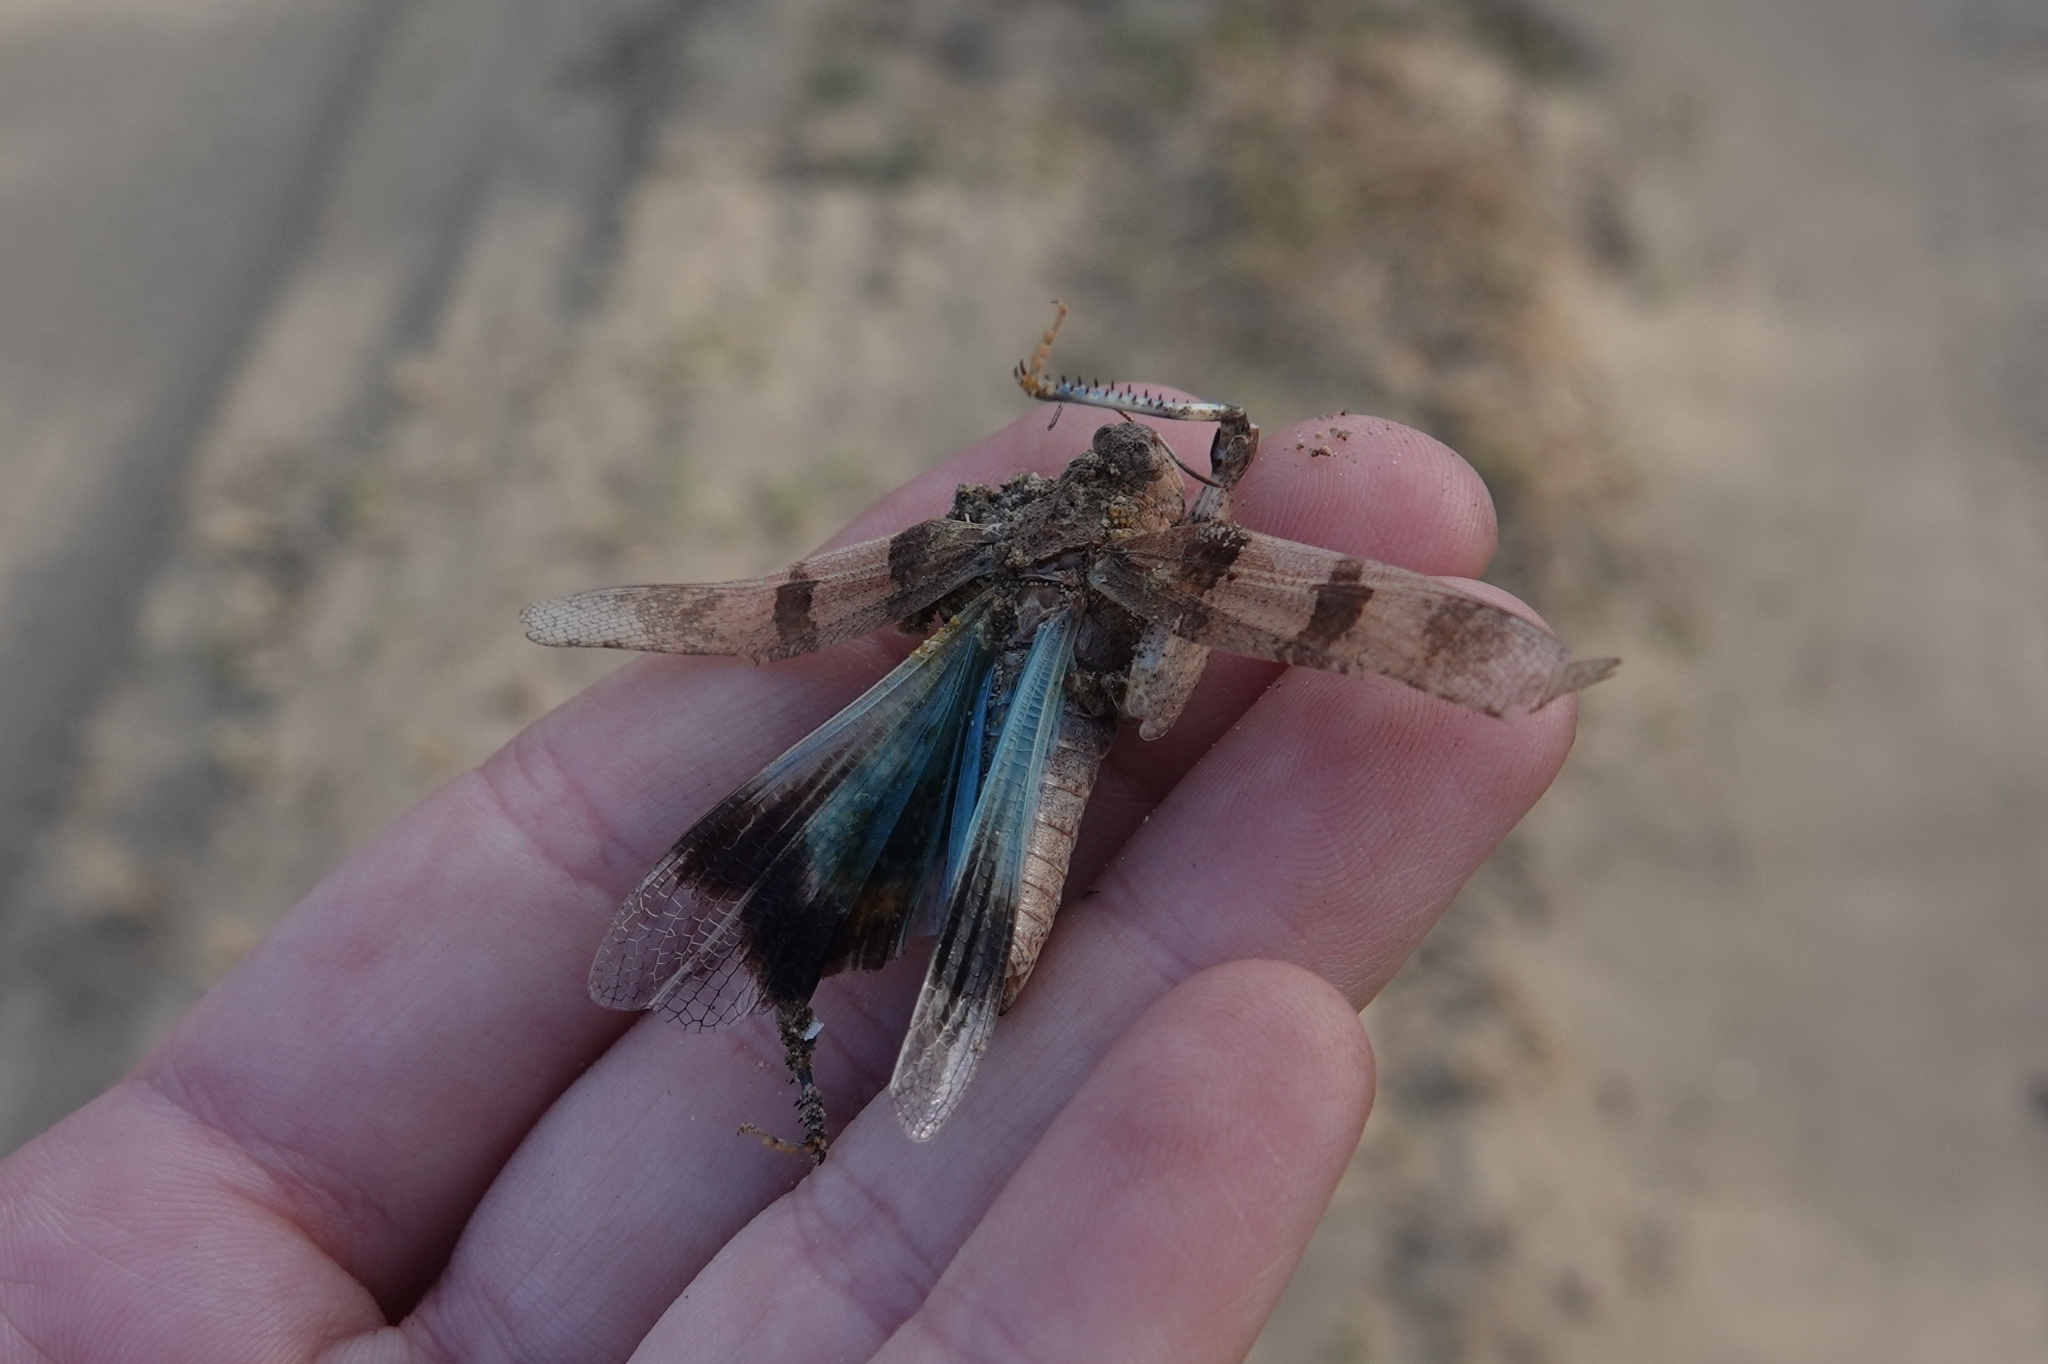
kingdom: Animalia
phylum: Arthropoda
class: Insecta
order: Orthoptera
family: Acrididae
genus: Oedipoda
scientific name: Oedipoda caerulescens
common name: Blue-winged grasshopper
